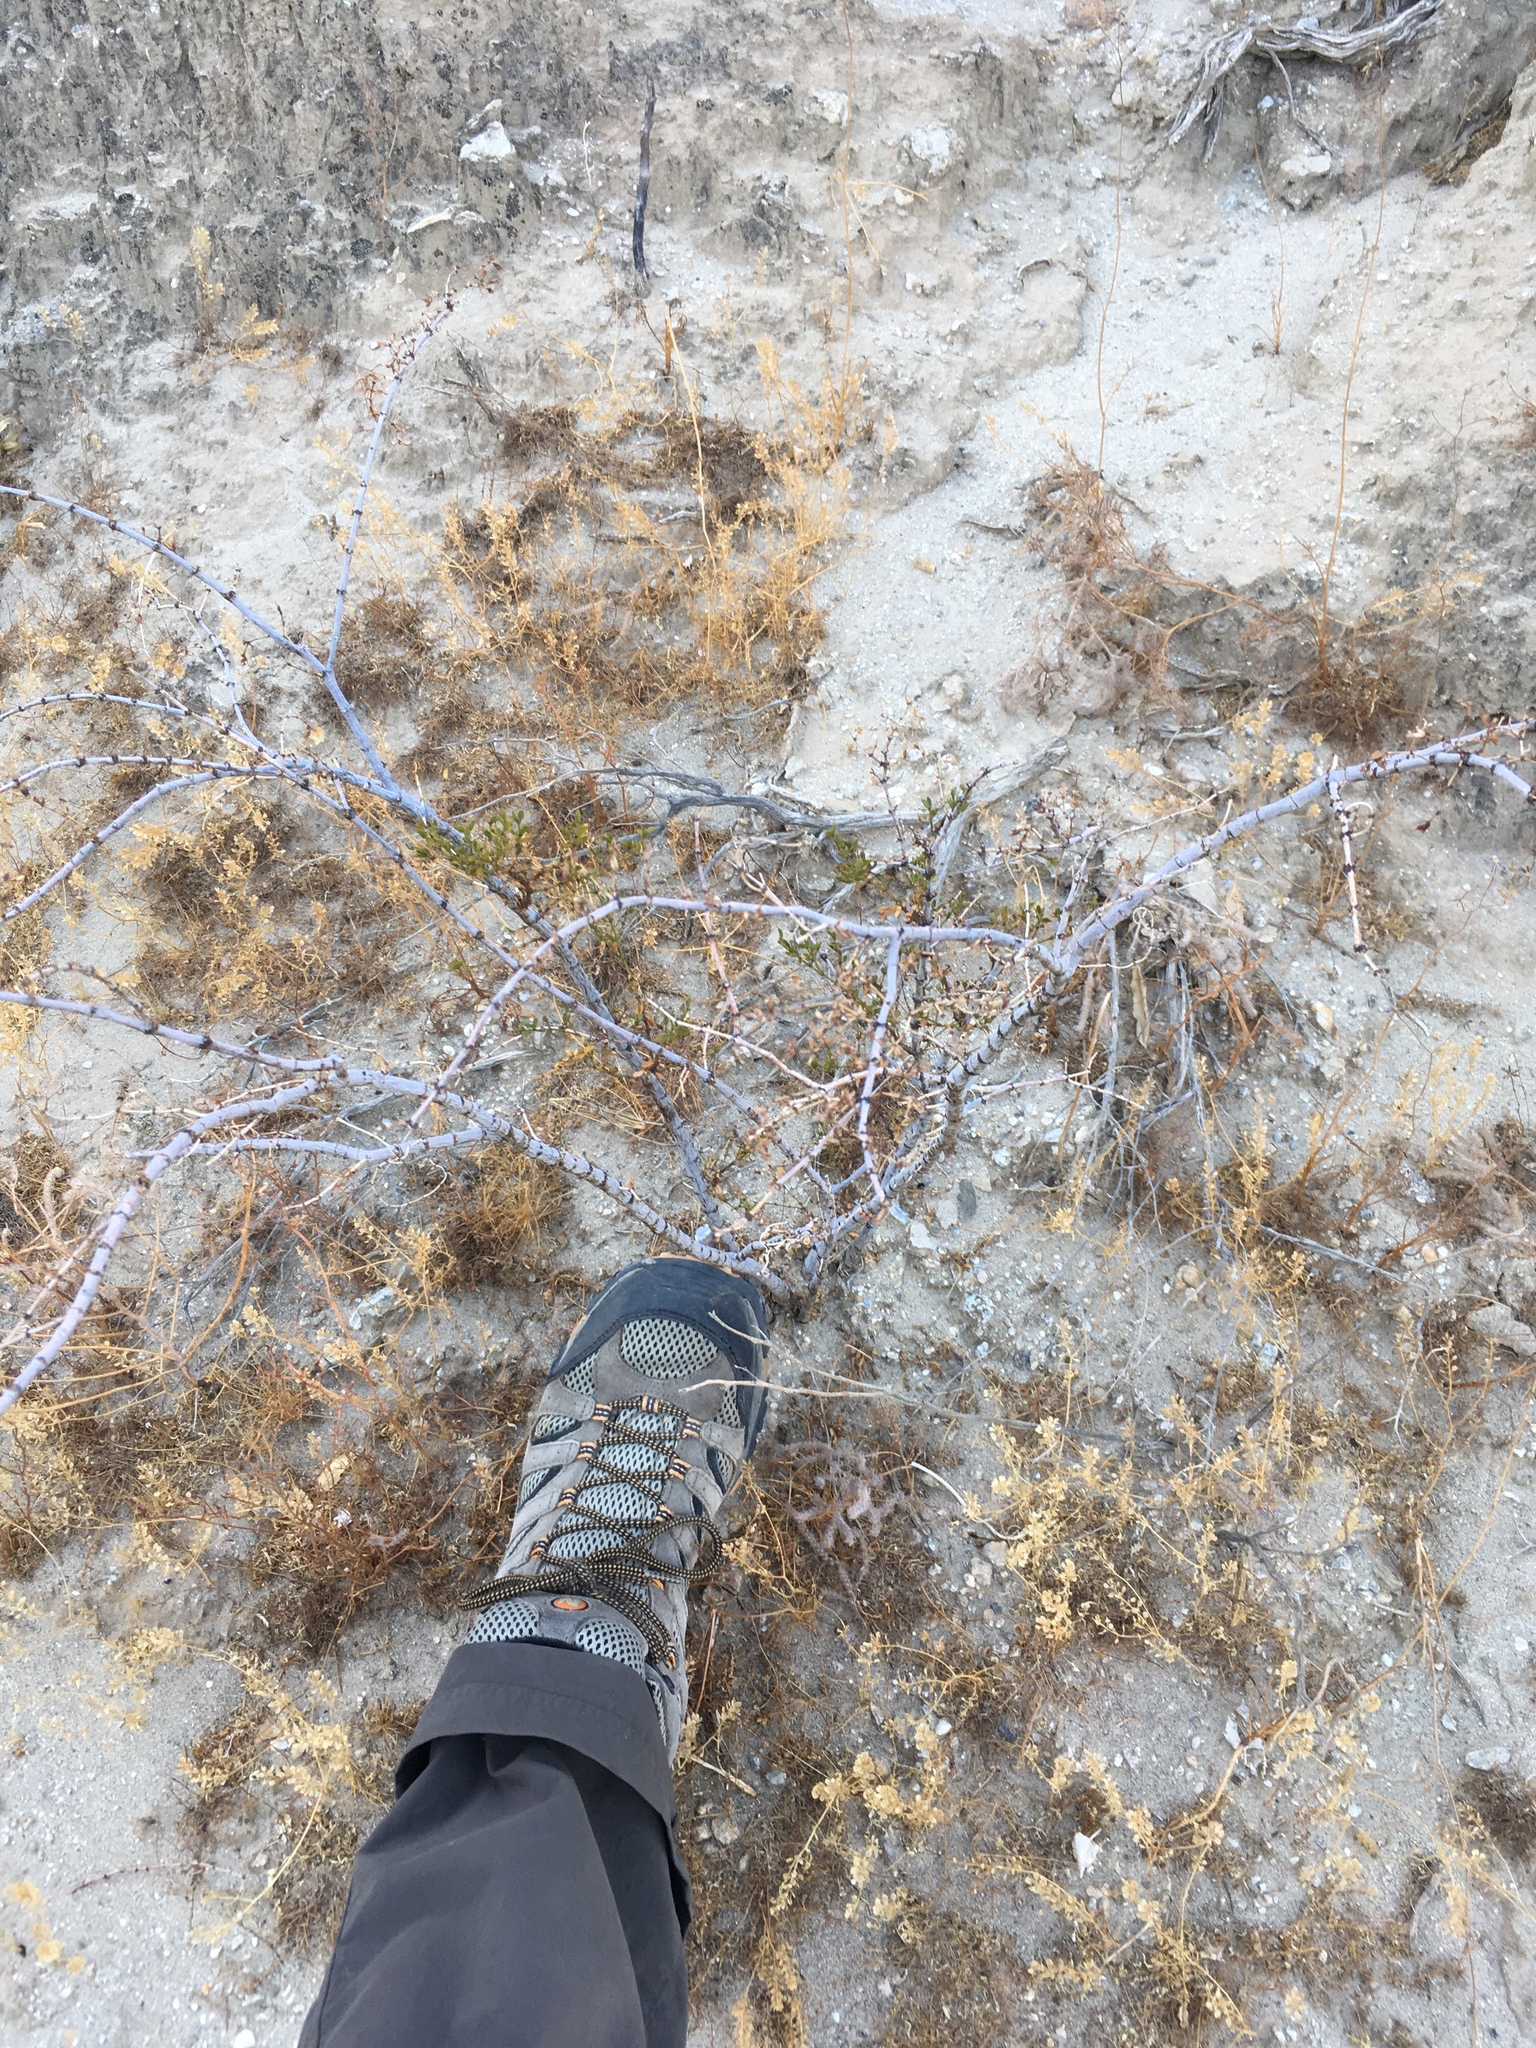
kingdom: Plantae
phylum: Tracheophyta
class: Magnoliopsida
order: Zygophyllales
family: Zygophyllaceae
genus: Larrea
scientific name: Larrea tridentata
